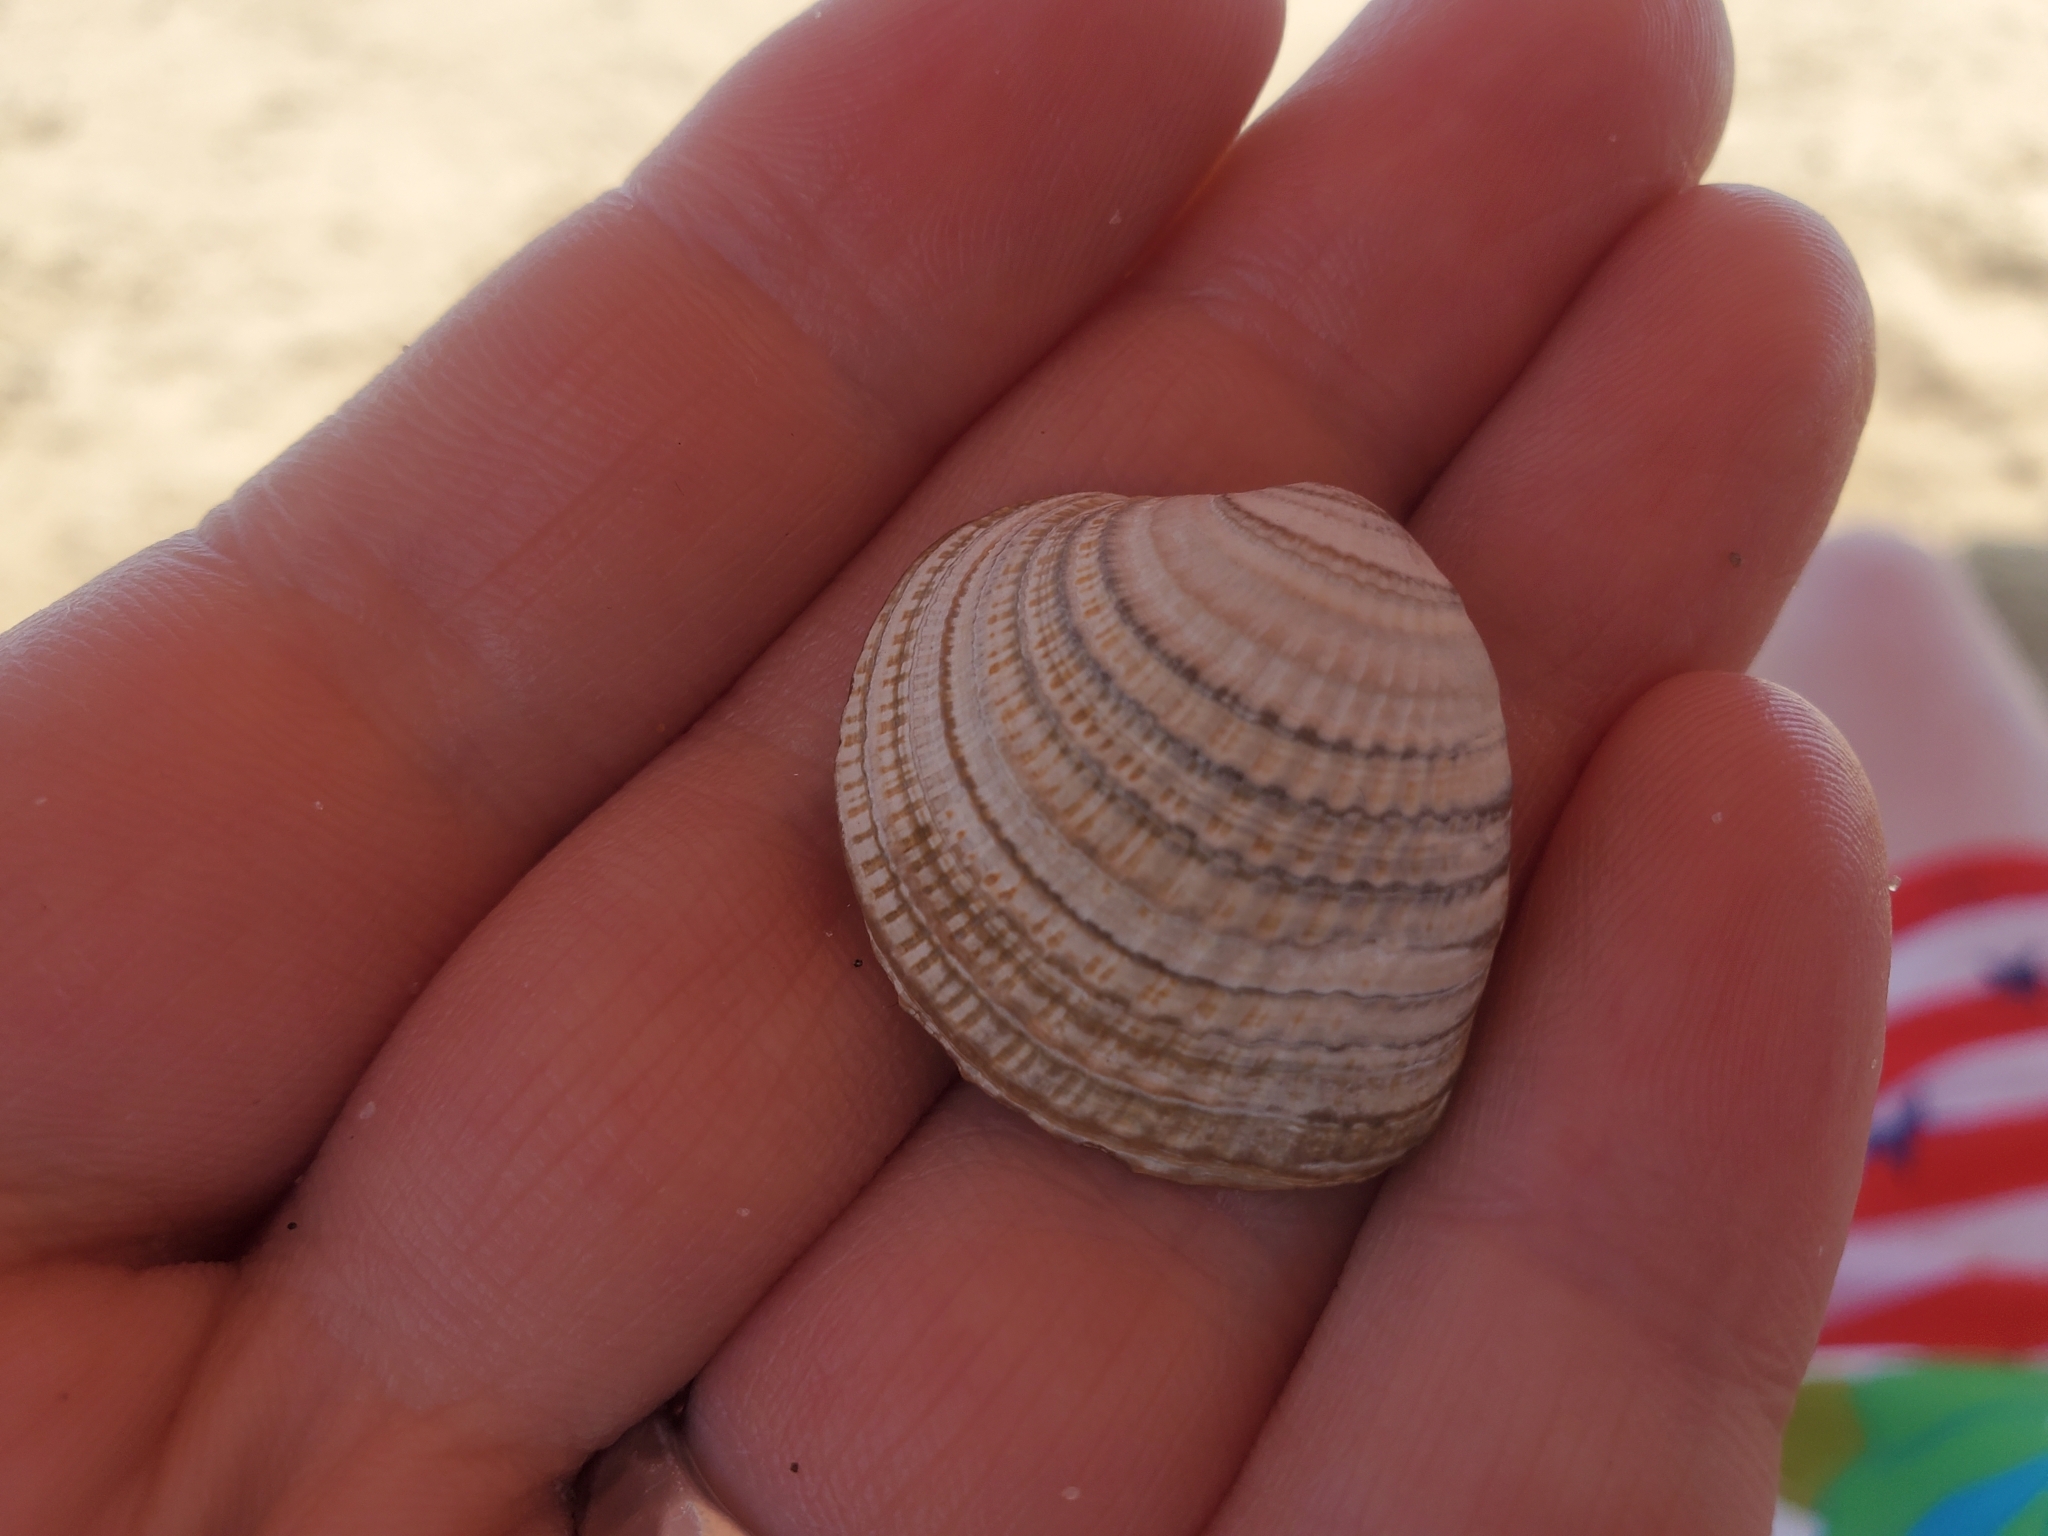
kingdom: Animalia
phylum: Mollusca
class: Bivalvia
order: Venerida
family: Veneridae
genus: Chione
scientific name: Chione elevata
